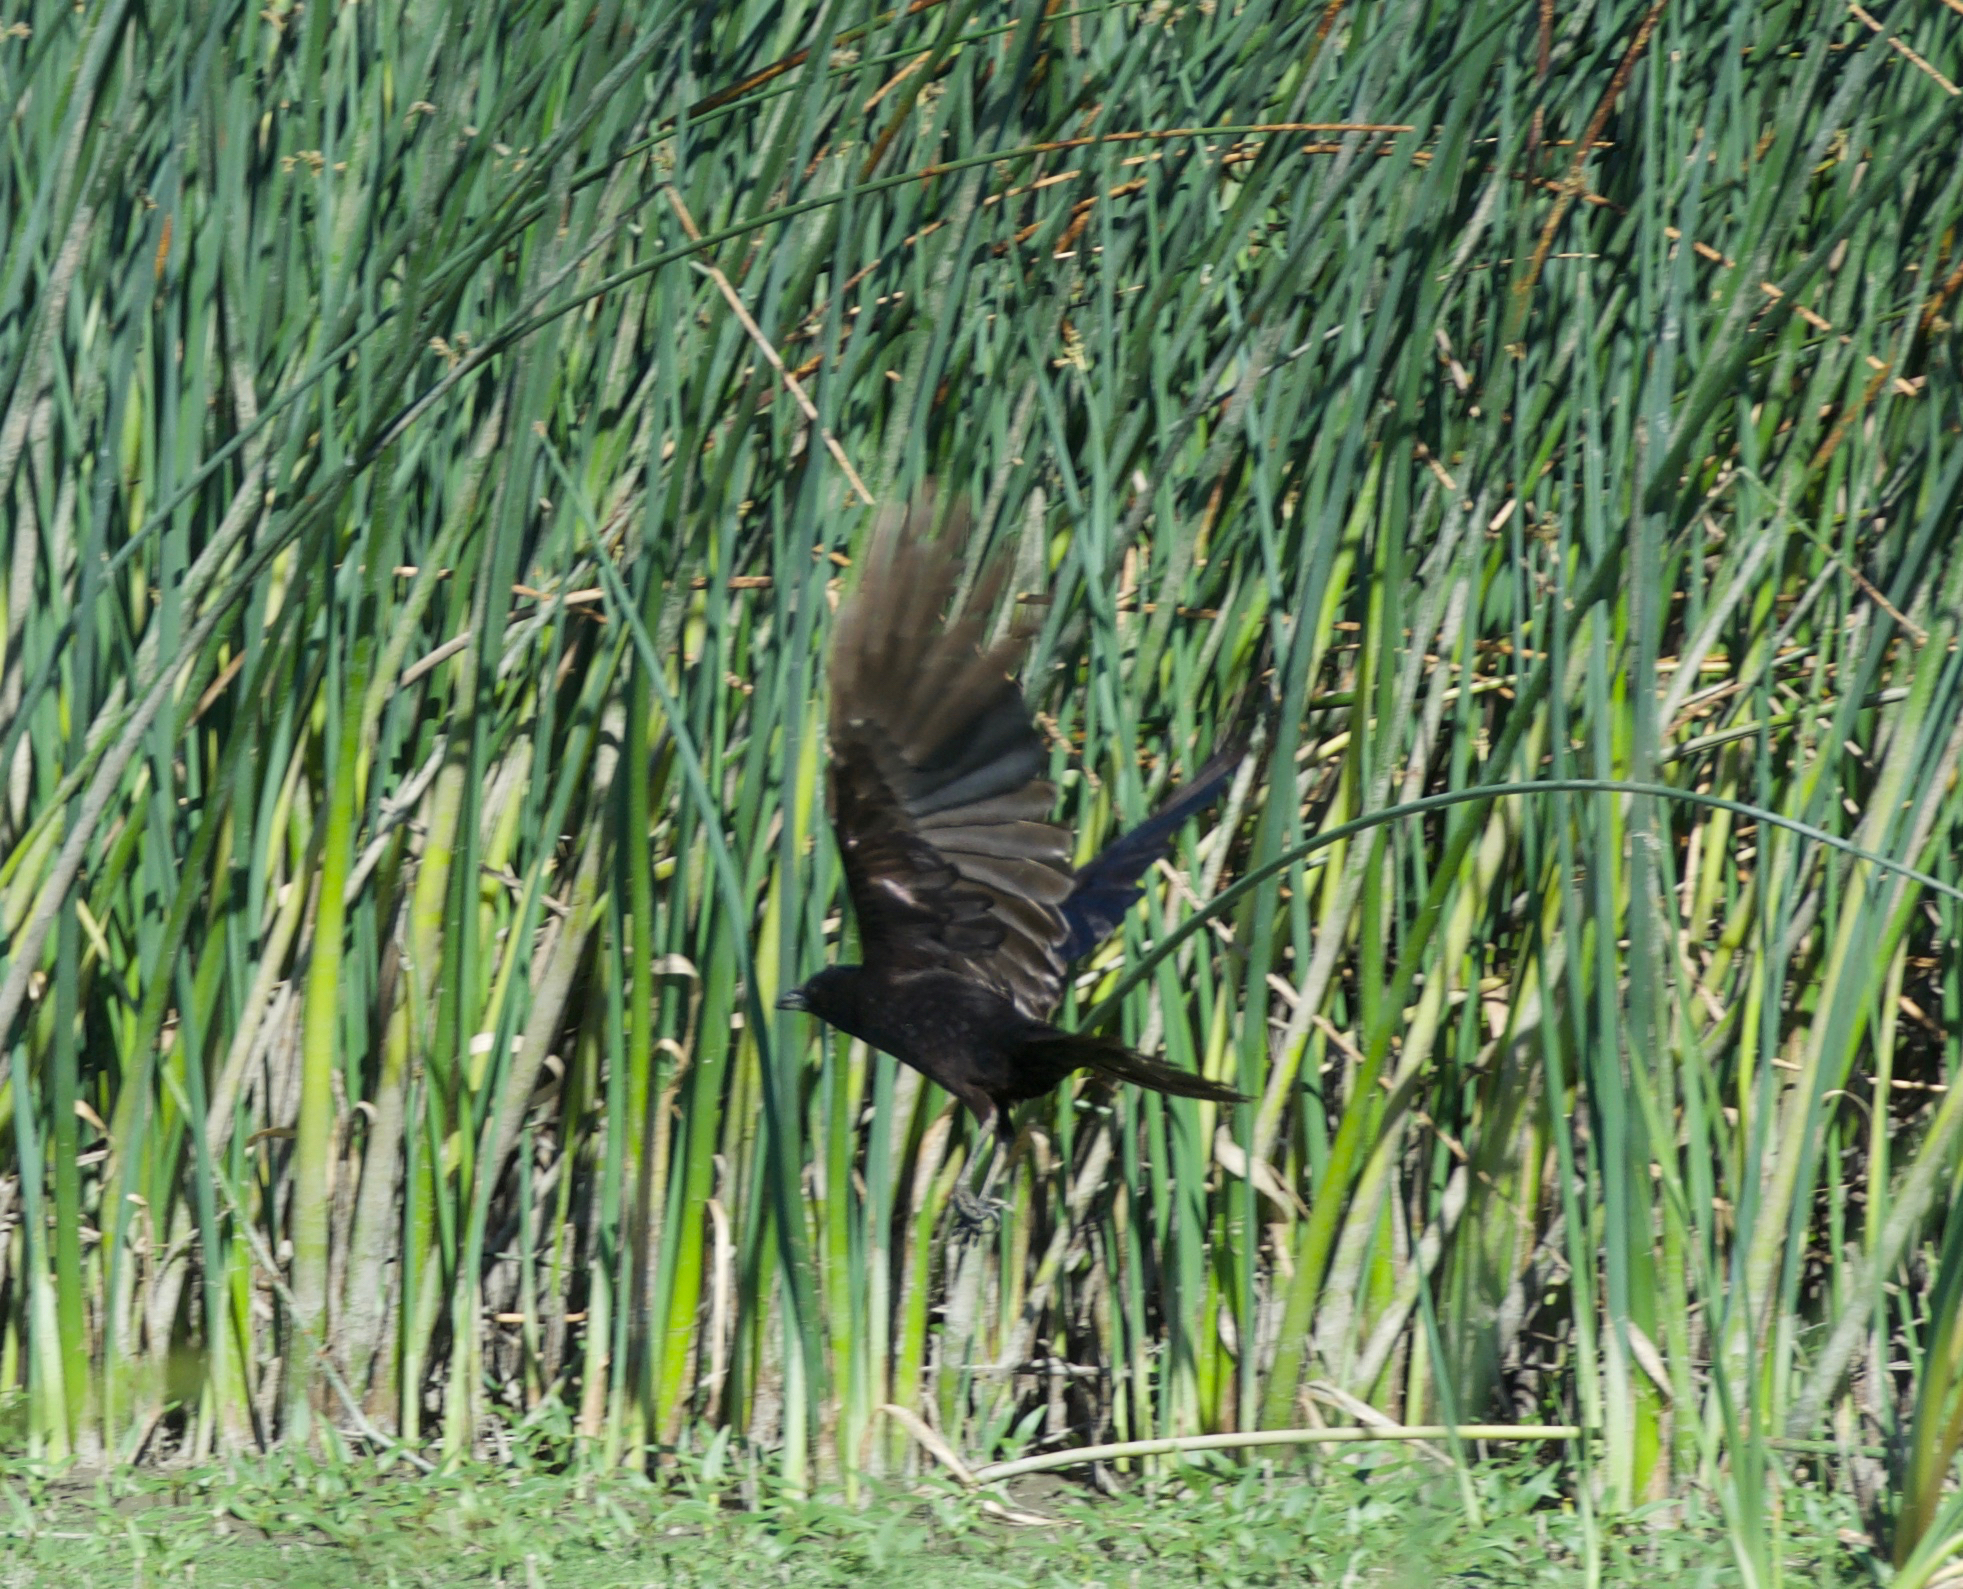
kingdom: Animalia
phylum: Chordata
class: Aves
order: Passeriformes
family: Corvidae
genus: Corvus
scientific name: Corvus brachyrhynchos
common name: American crow
